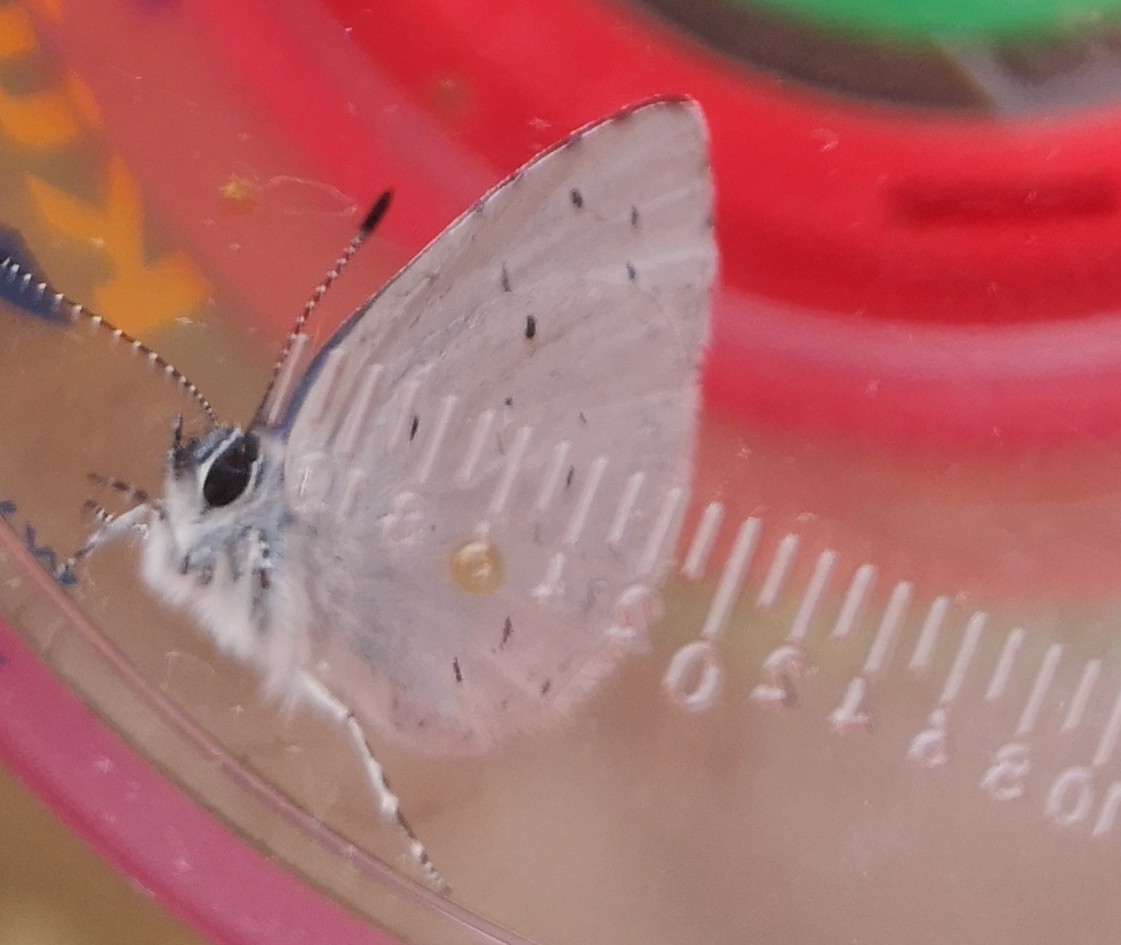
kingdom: Animalia
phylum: Arthropoda
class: Insecta
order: Lepidoptera
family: Lycaenidae
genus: Celastrina
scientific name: Celastrina argiolus
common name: Holly blue
